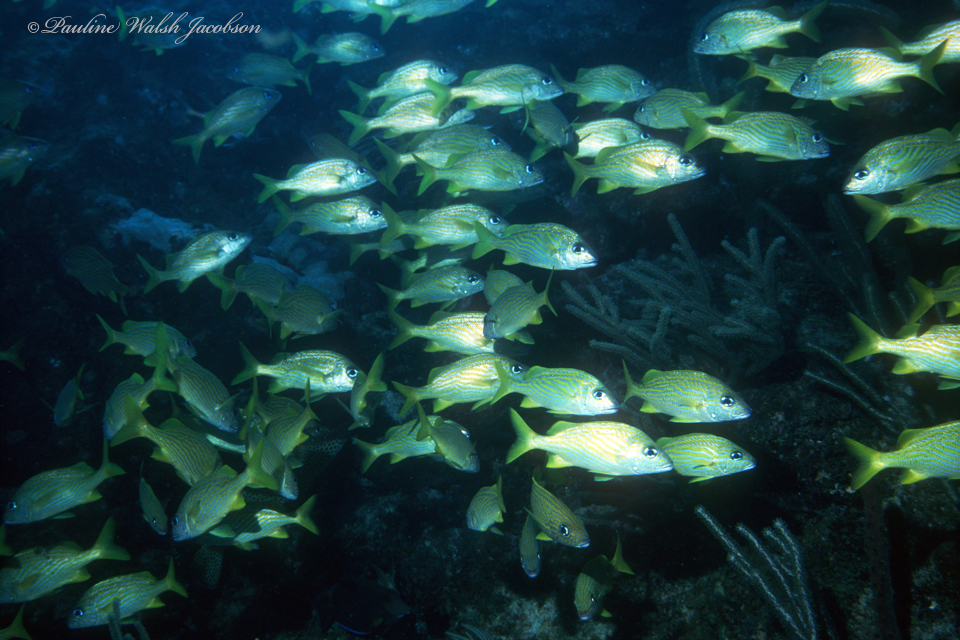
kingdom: Animalia
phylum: Chordata
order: Perciformes
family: Haemulidae
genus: Haemulon
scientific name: Haemulon flavolineatum
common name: French grunt
